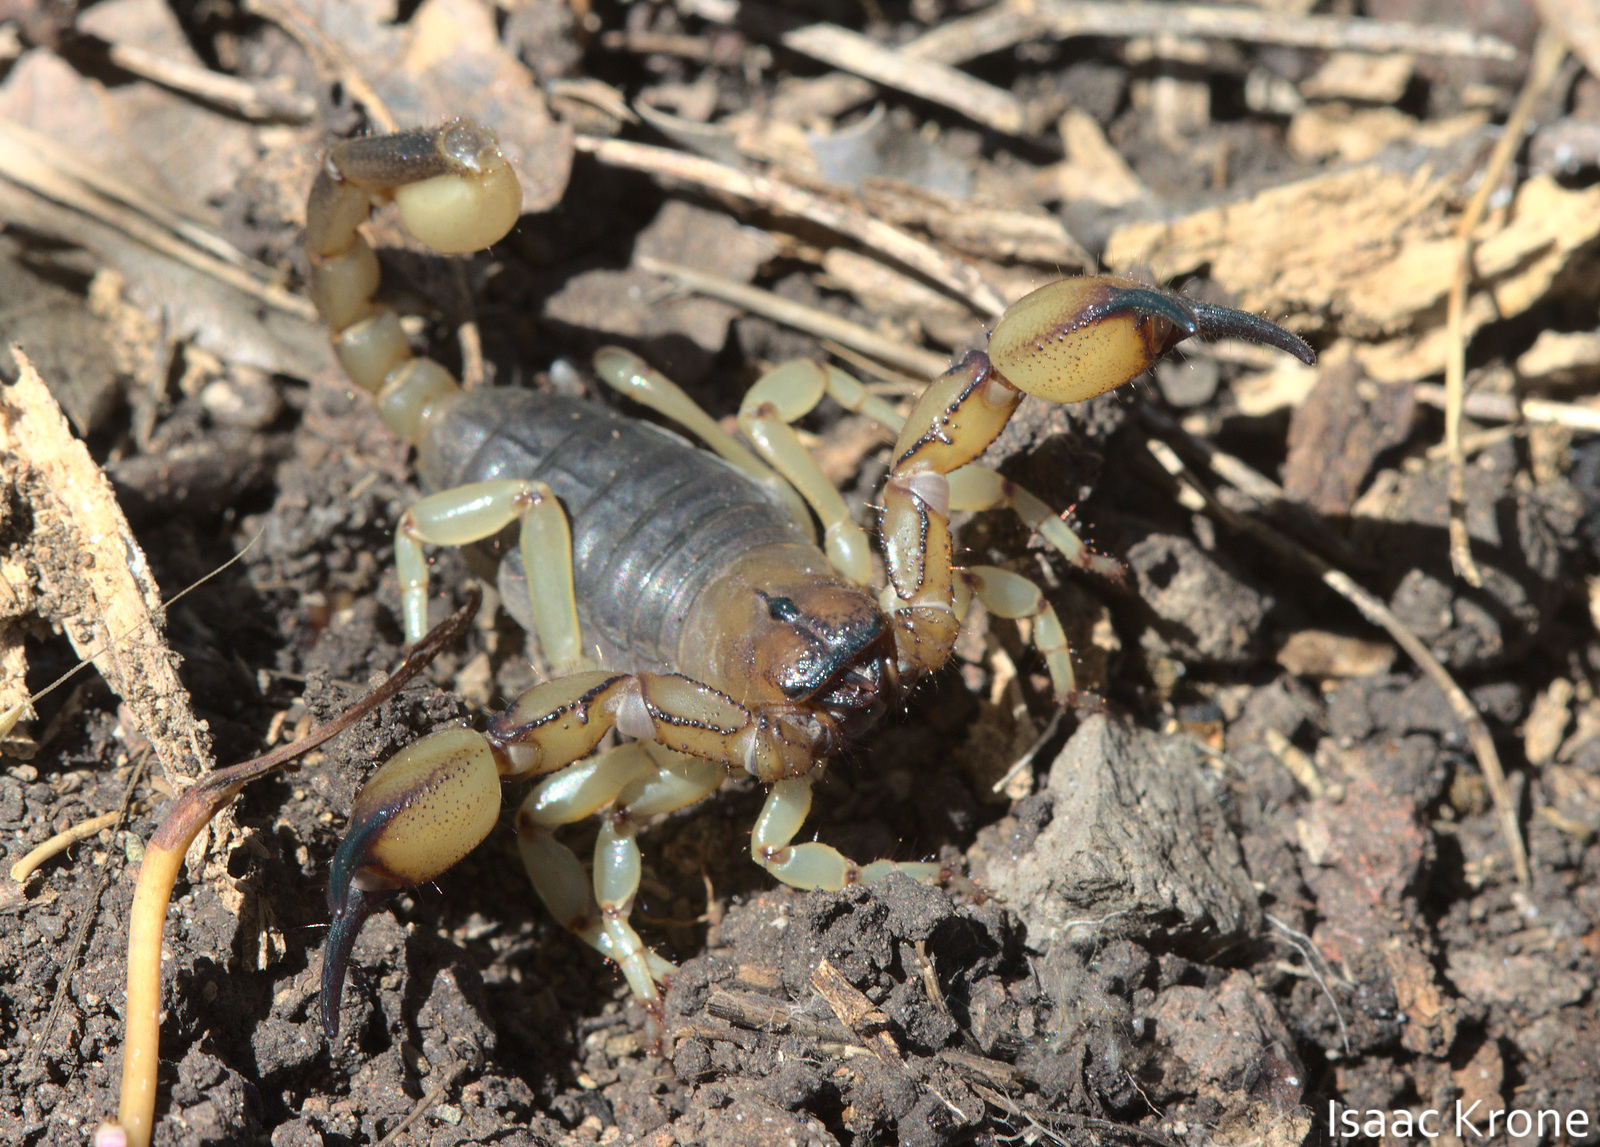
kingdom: Animalia
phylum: Arthropoda
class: Arachnida
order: Scorpiones
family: Chactidae
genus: Anuroctonus
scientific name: Anuroctonus pococki
